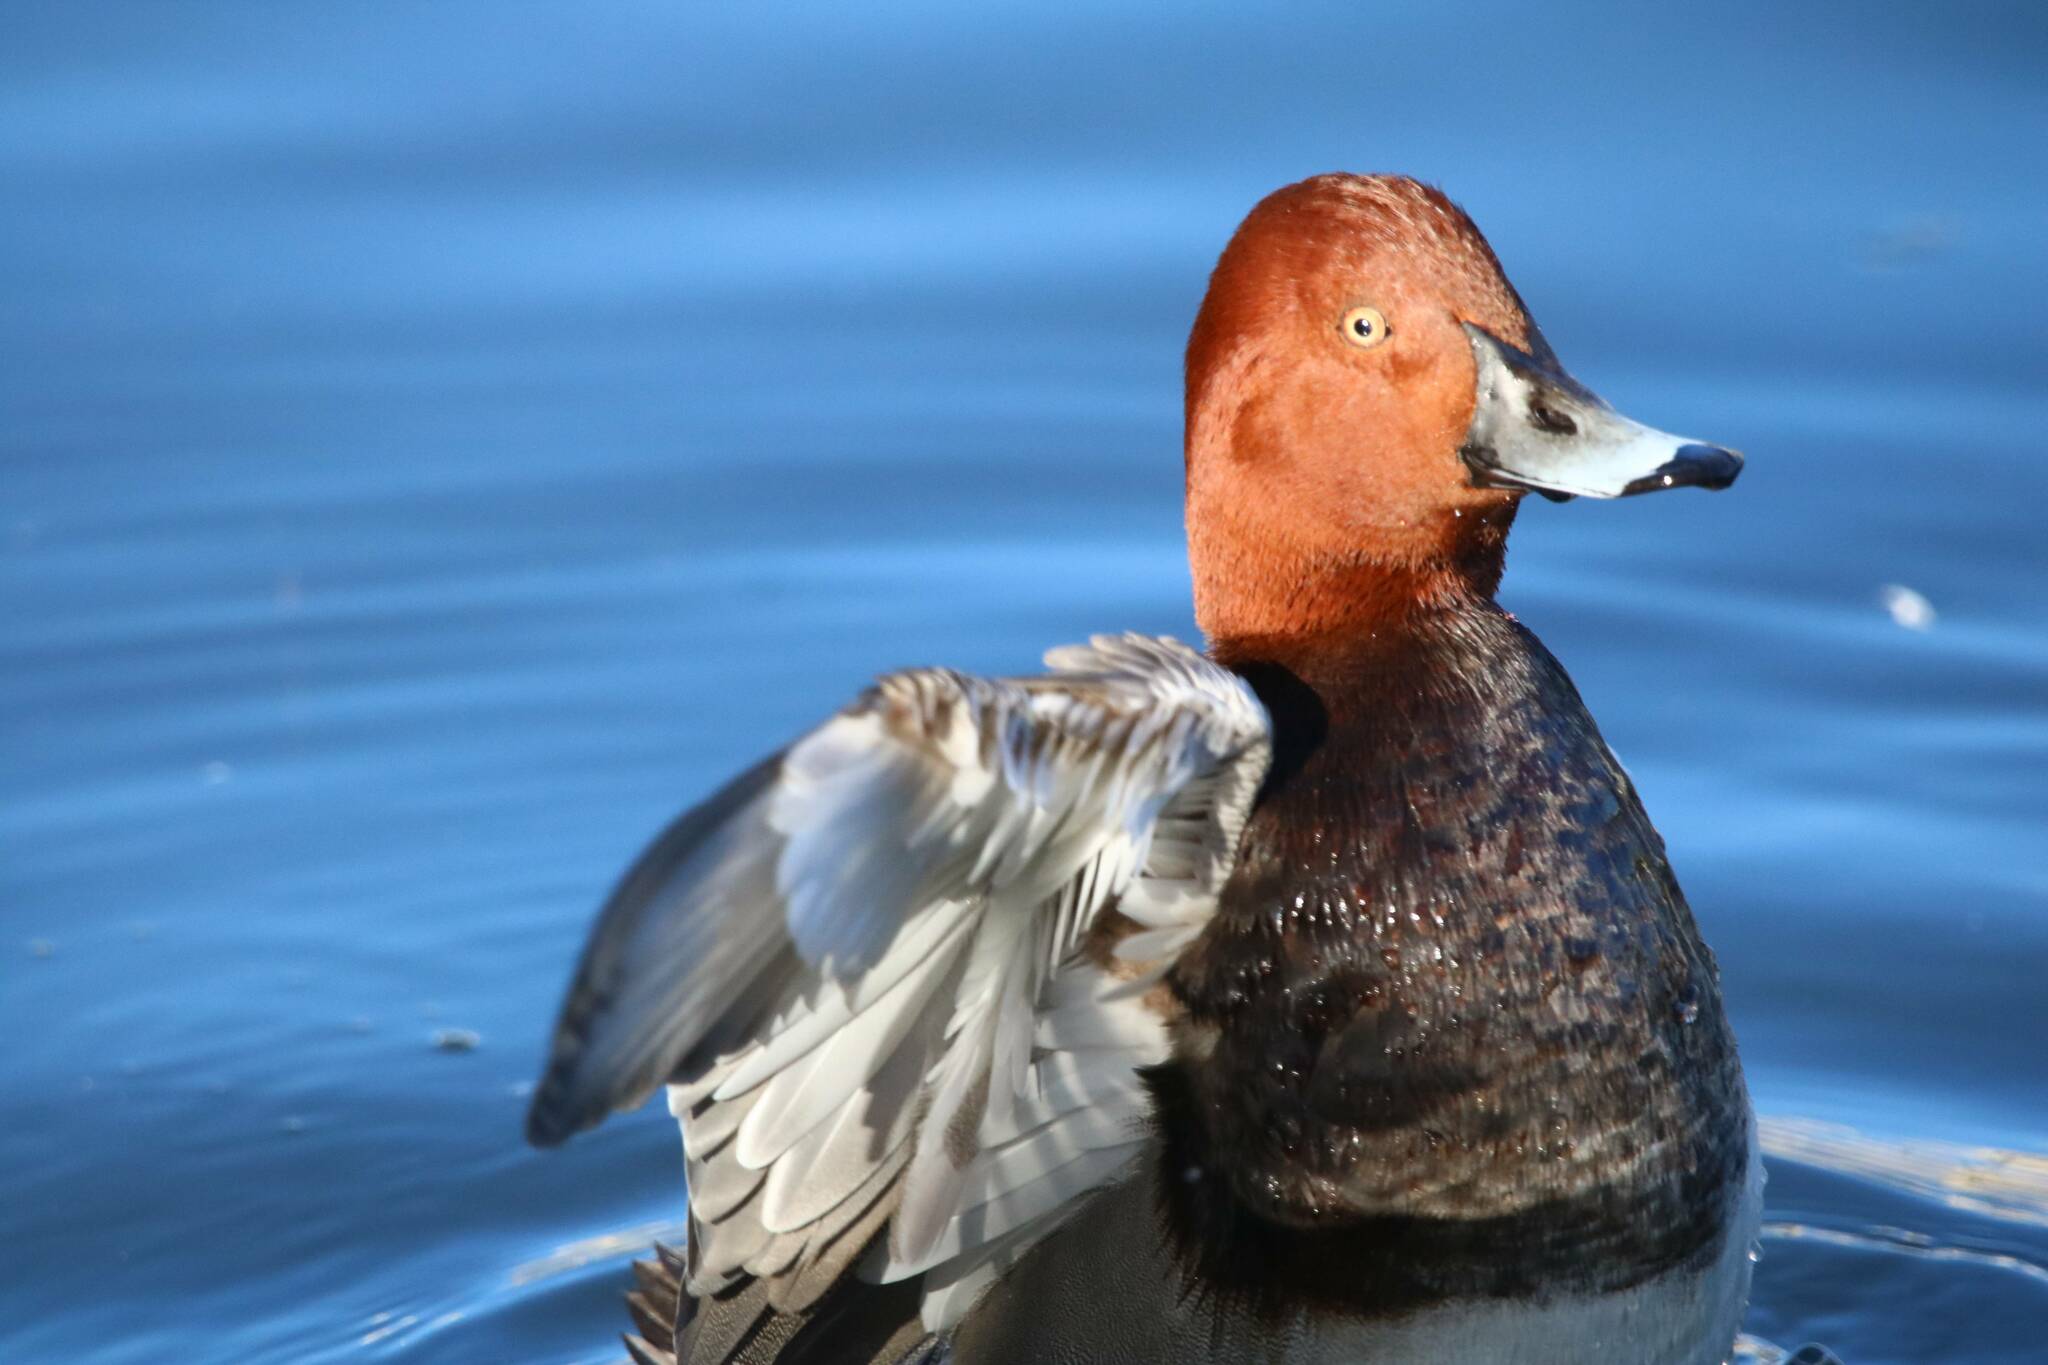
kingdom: Animalia
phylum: Chordata
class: Aves
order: Anseriformes
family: Anatidae
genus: Aythya
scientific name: Aythya ferina
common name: Common pochard
